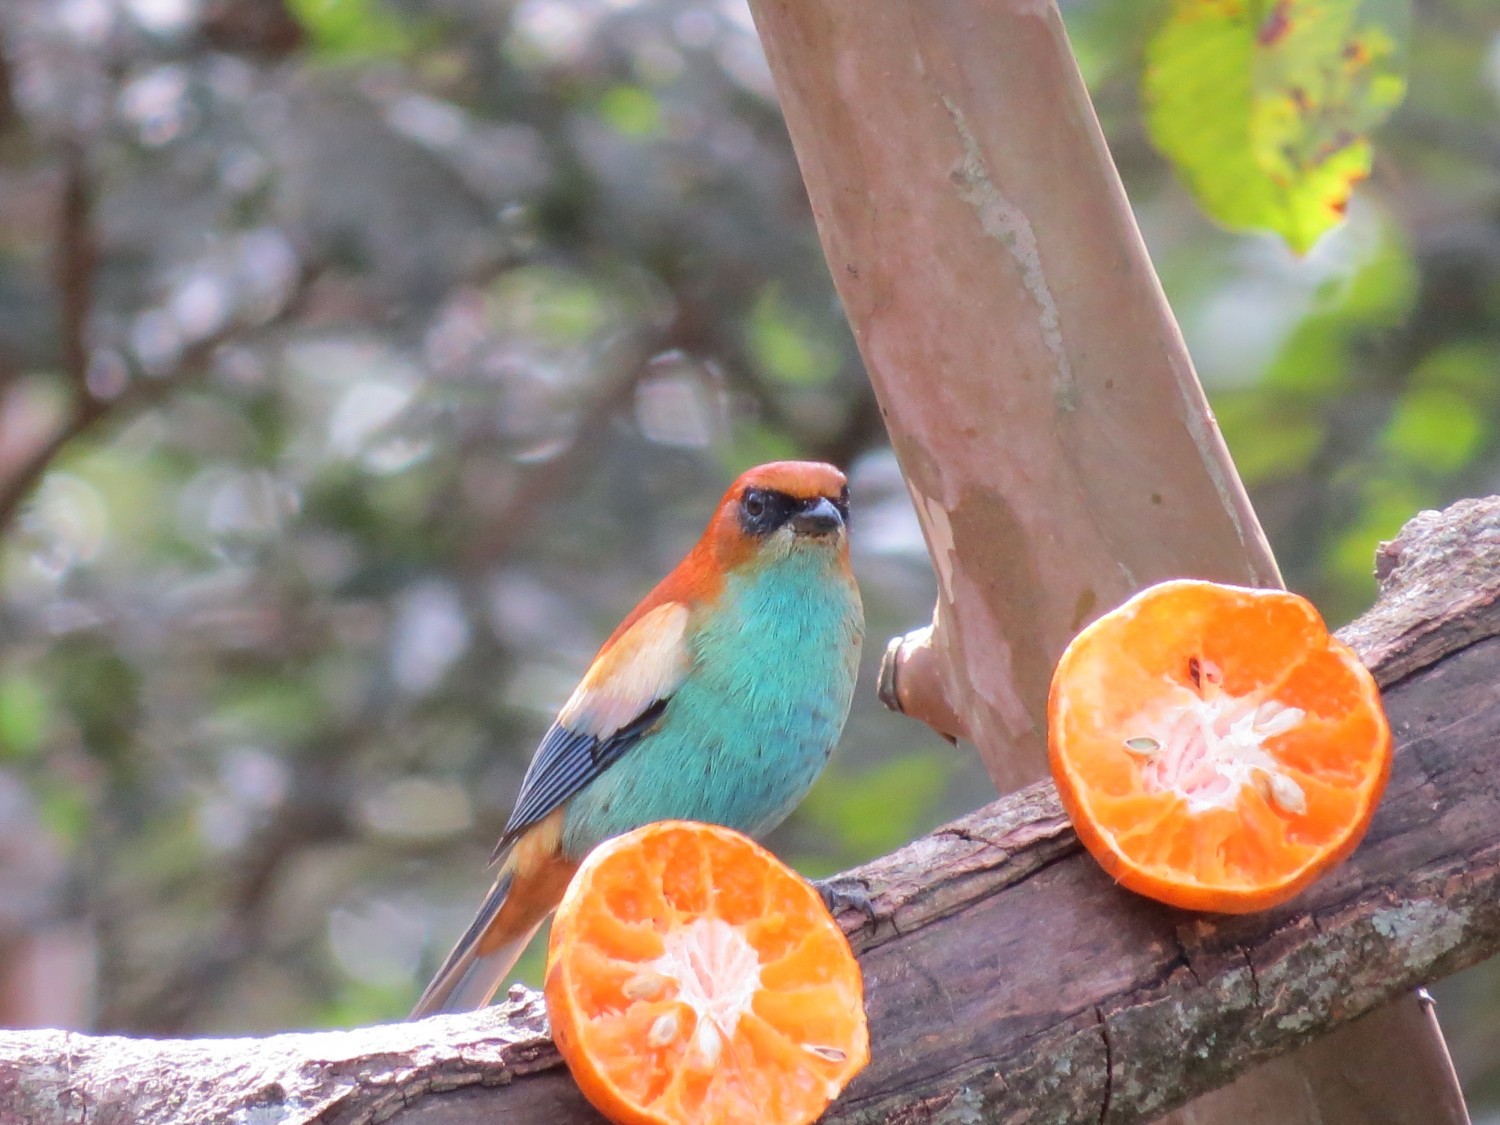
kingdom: Animalia
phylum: Chordata
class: Aves
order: Passeriformes
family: Thraupidae
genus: Stilpnia
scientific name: Stilpnia preciosa
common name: Chestnut-backed tanager
